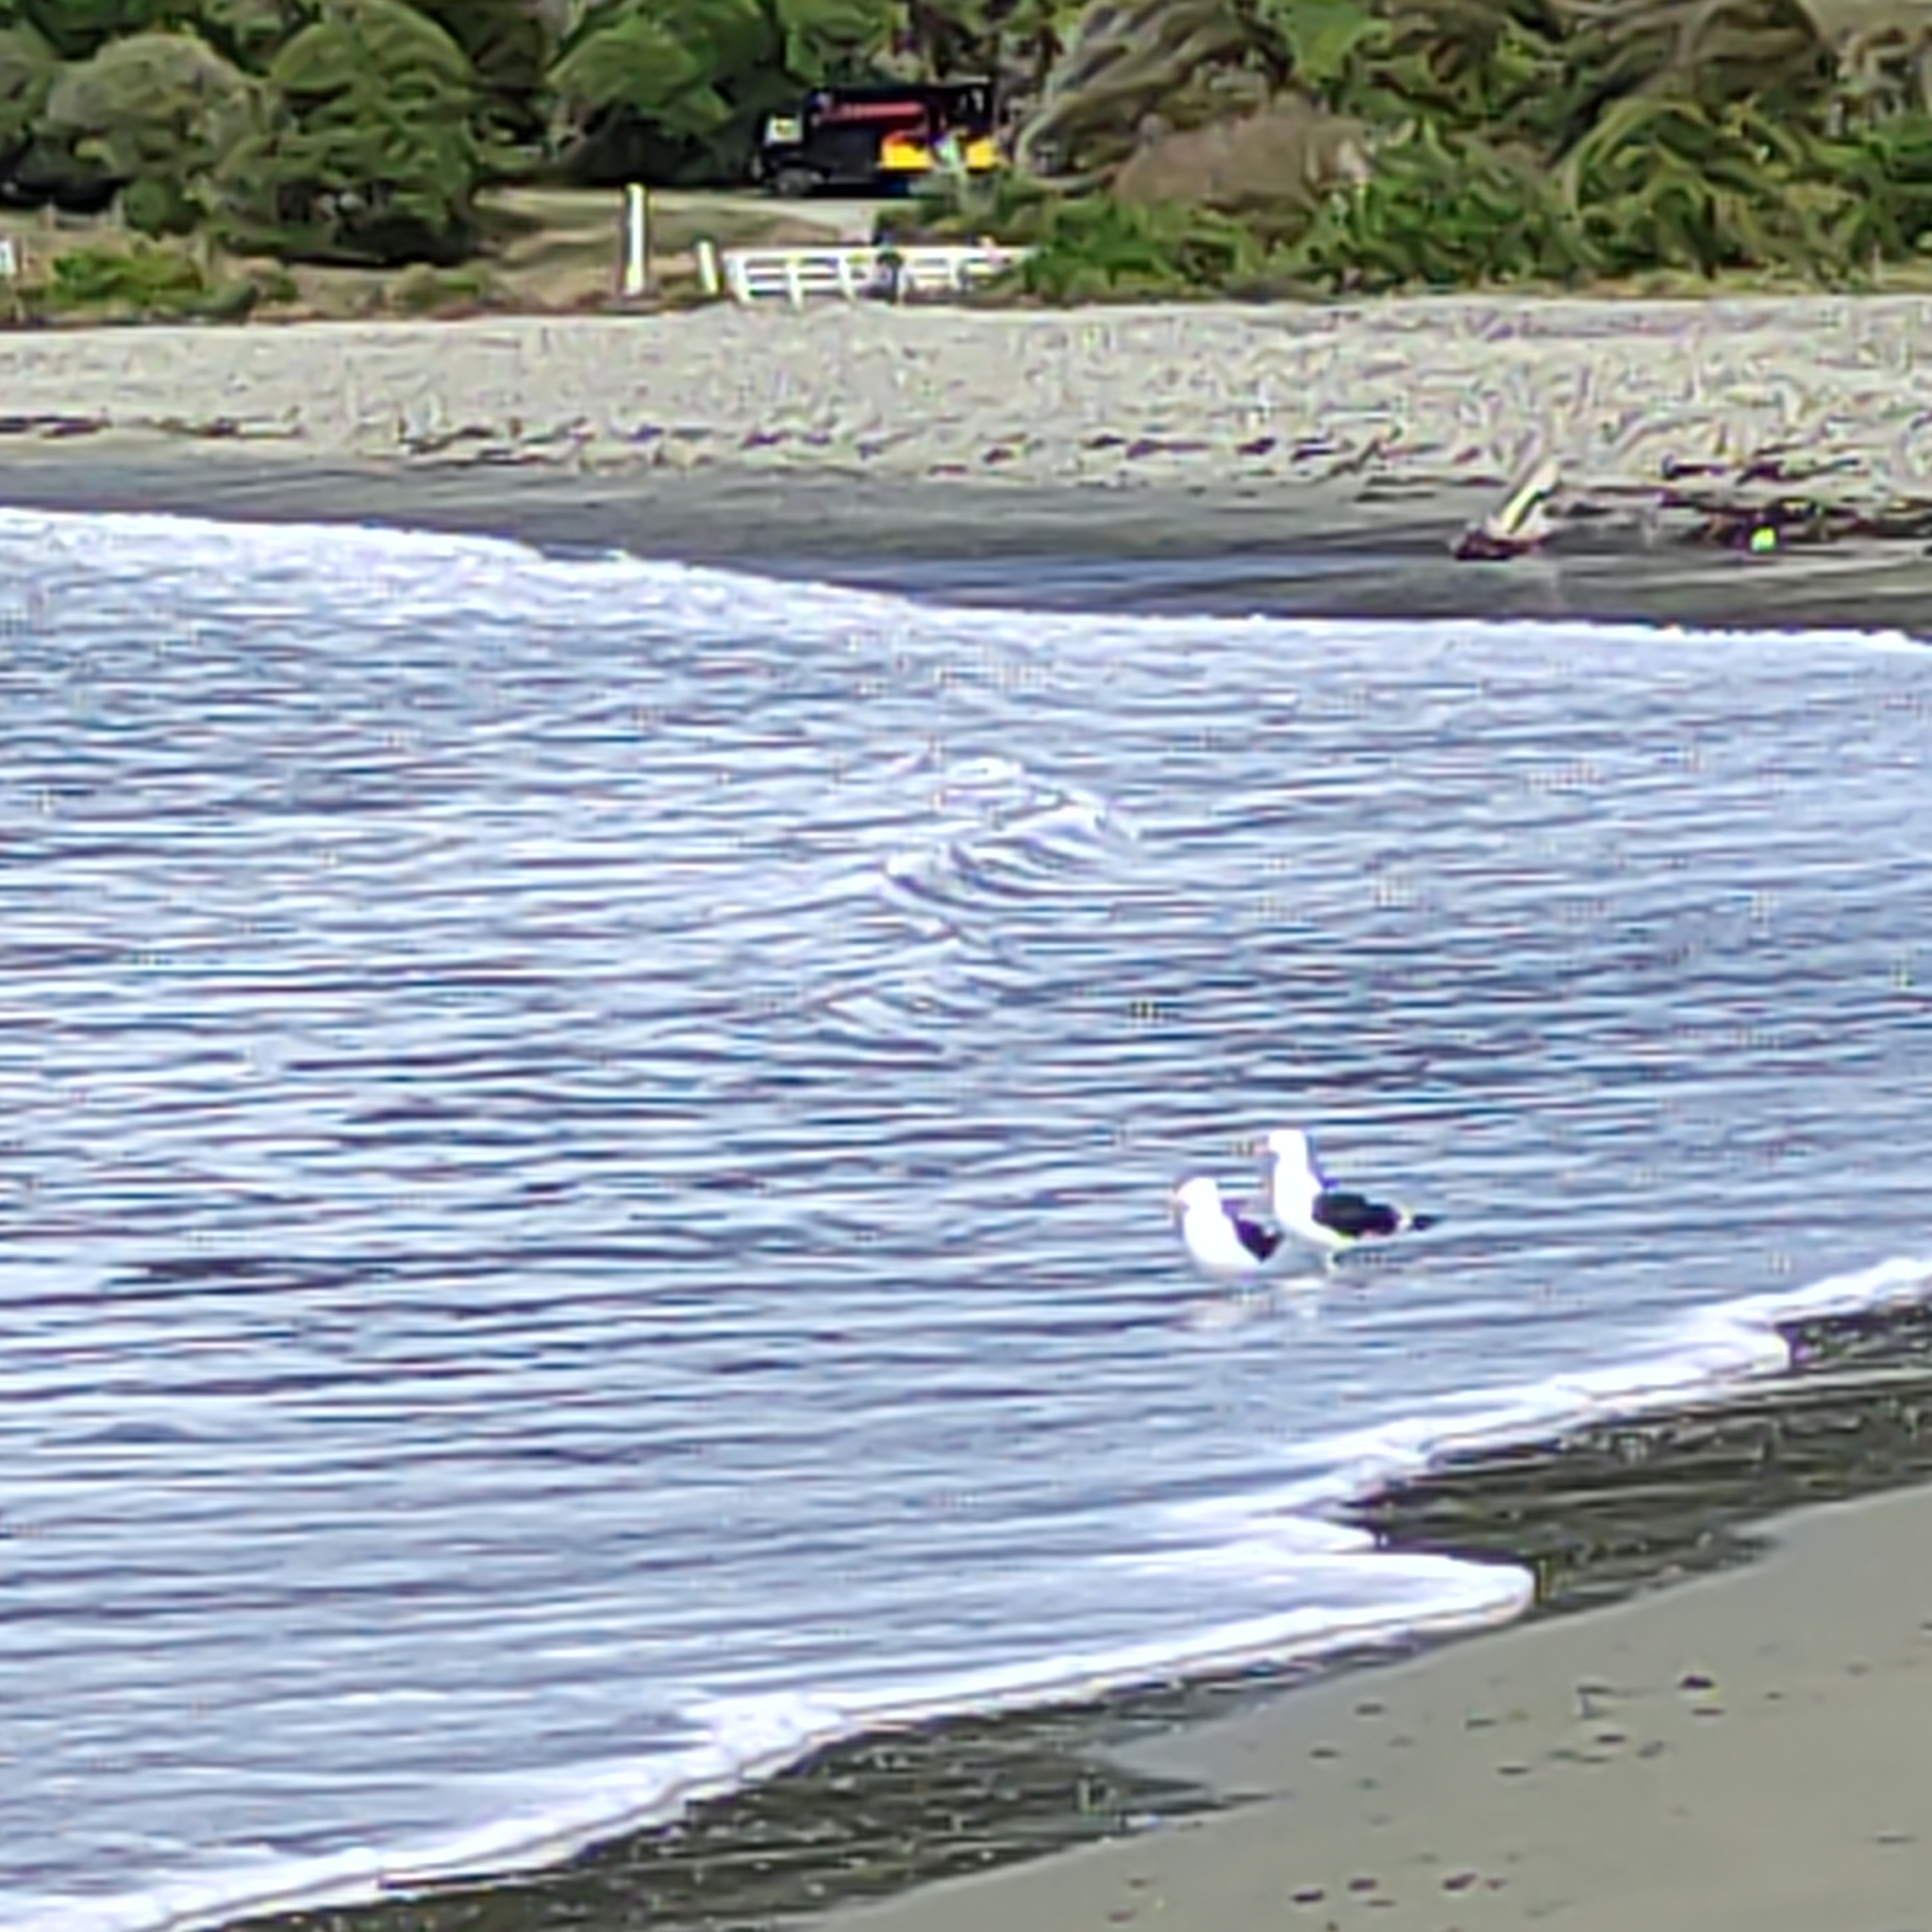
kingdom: Animalia
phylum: Chordata
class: Aves
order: Charadriiformes
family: Laridae
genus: Larus
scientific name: Larus dominicanus
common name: Kelp gull
